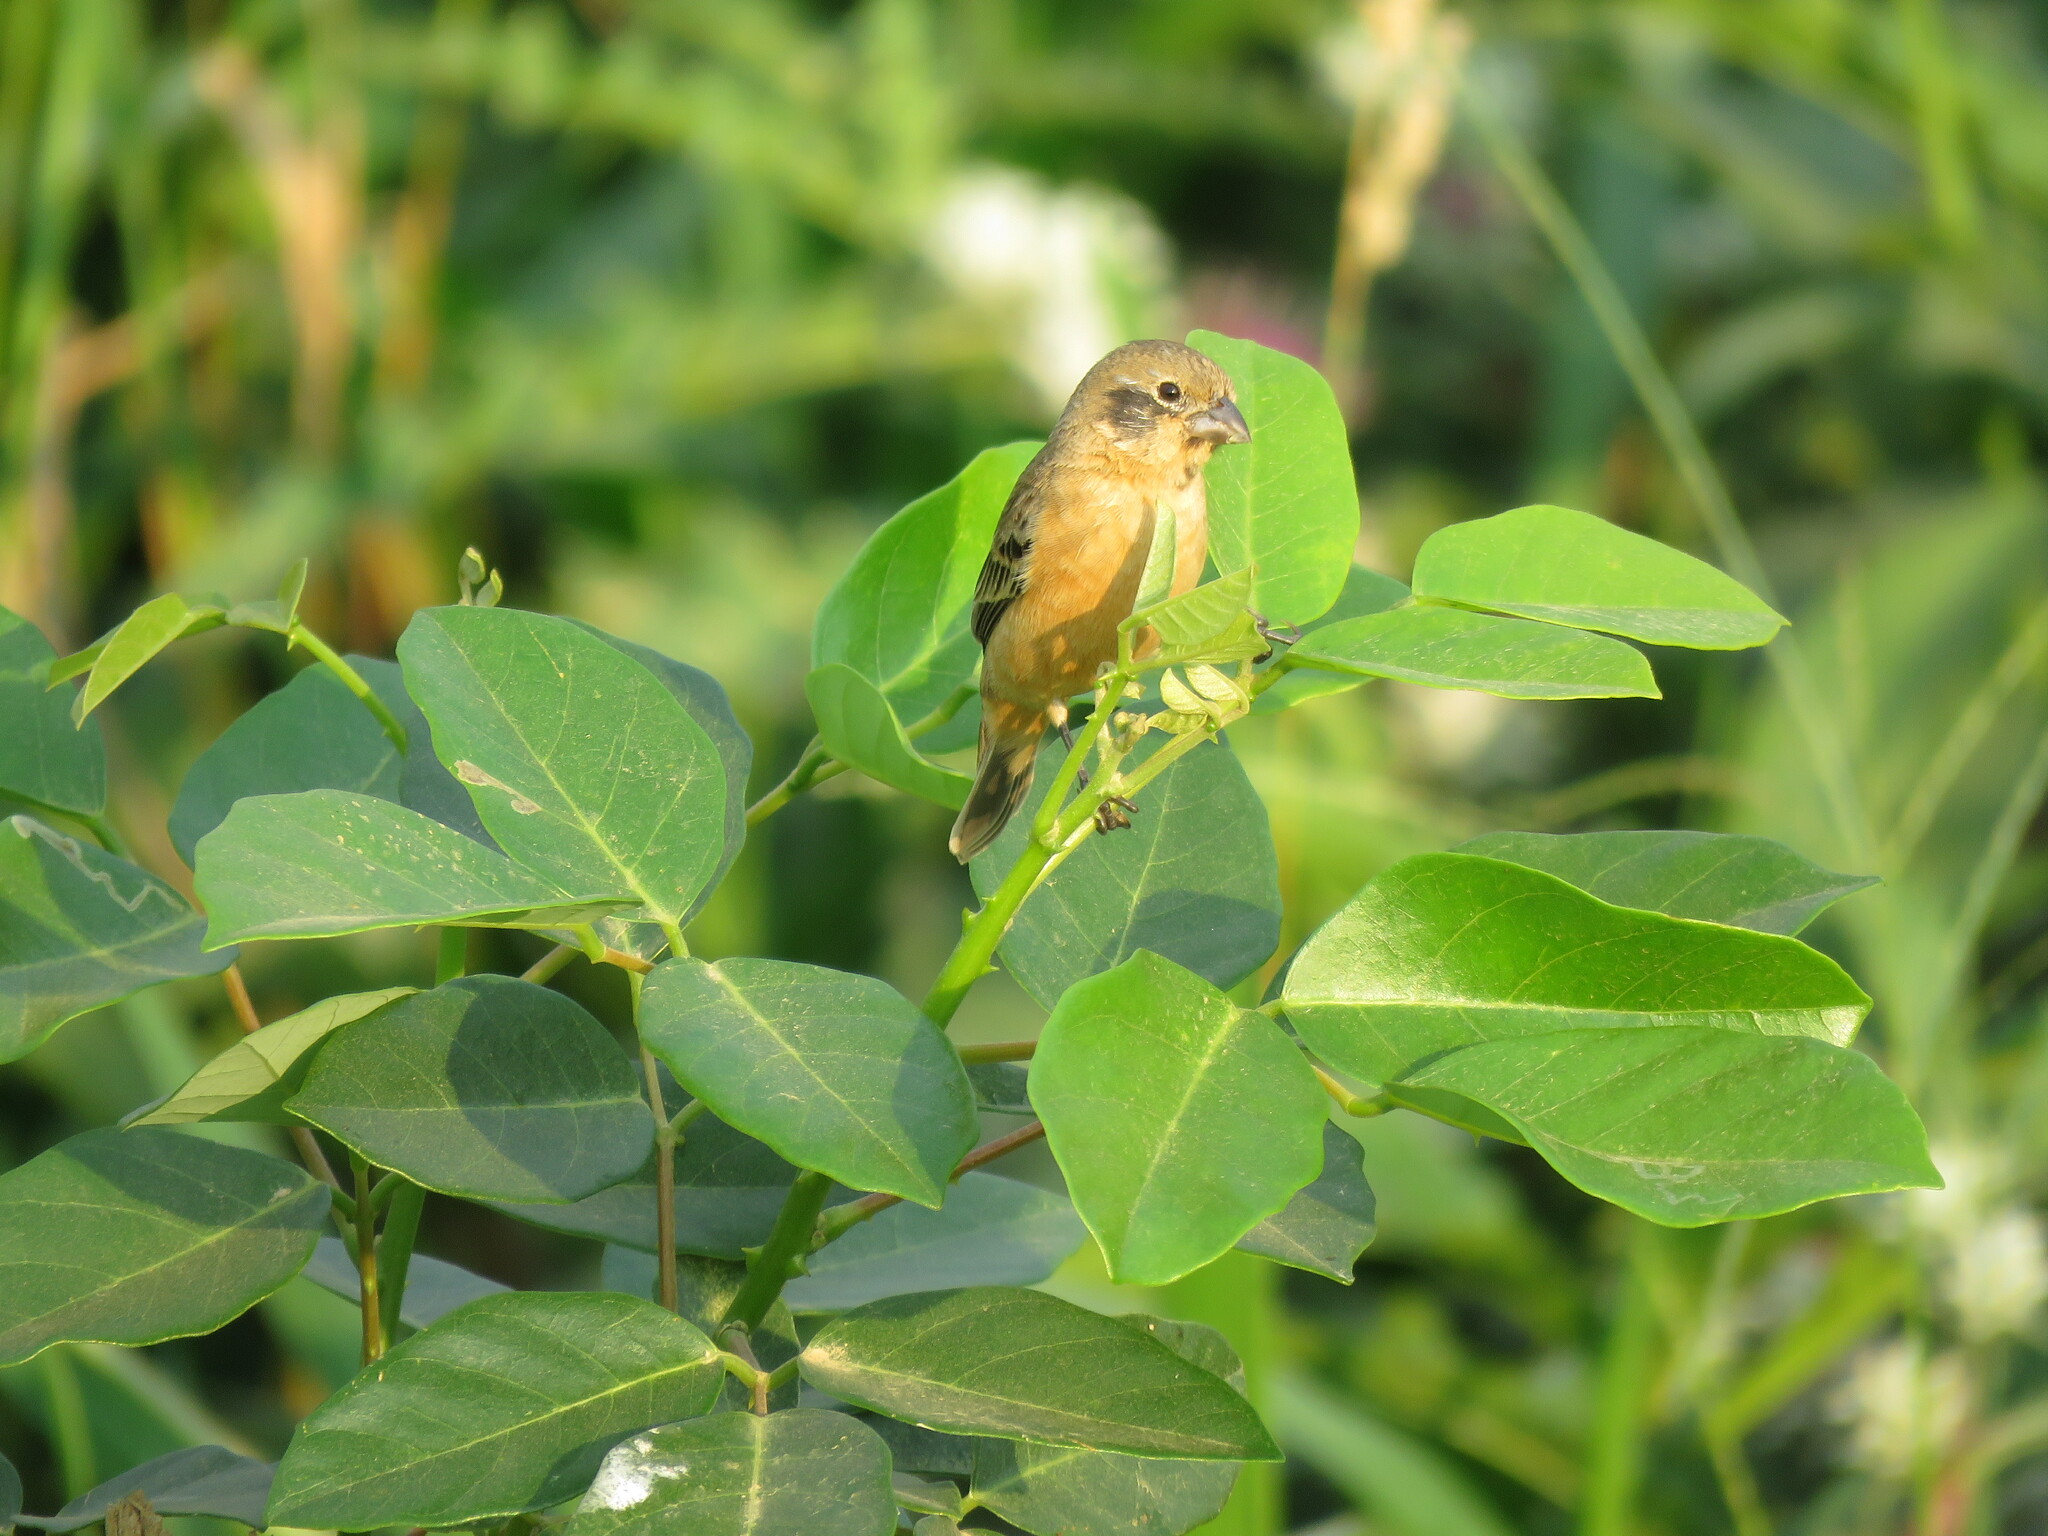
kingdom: Animalia
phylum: Chordata
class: Aves
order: Passeriformes
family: Thraupidae
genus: Sporophila
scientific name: Sporophila ruficollis
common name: Dark-throated seedeater
